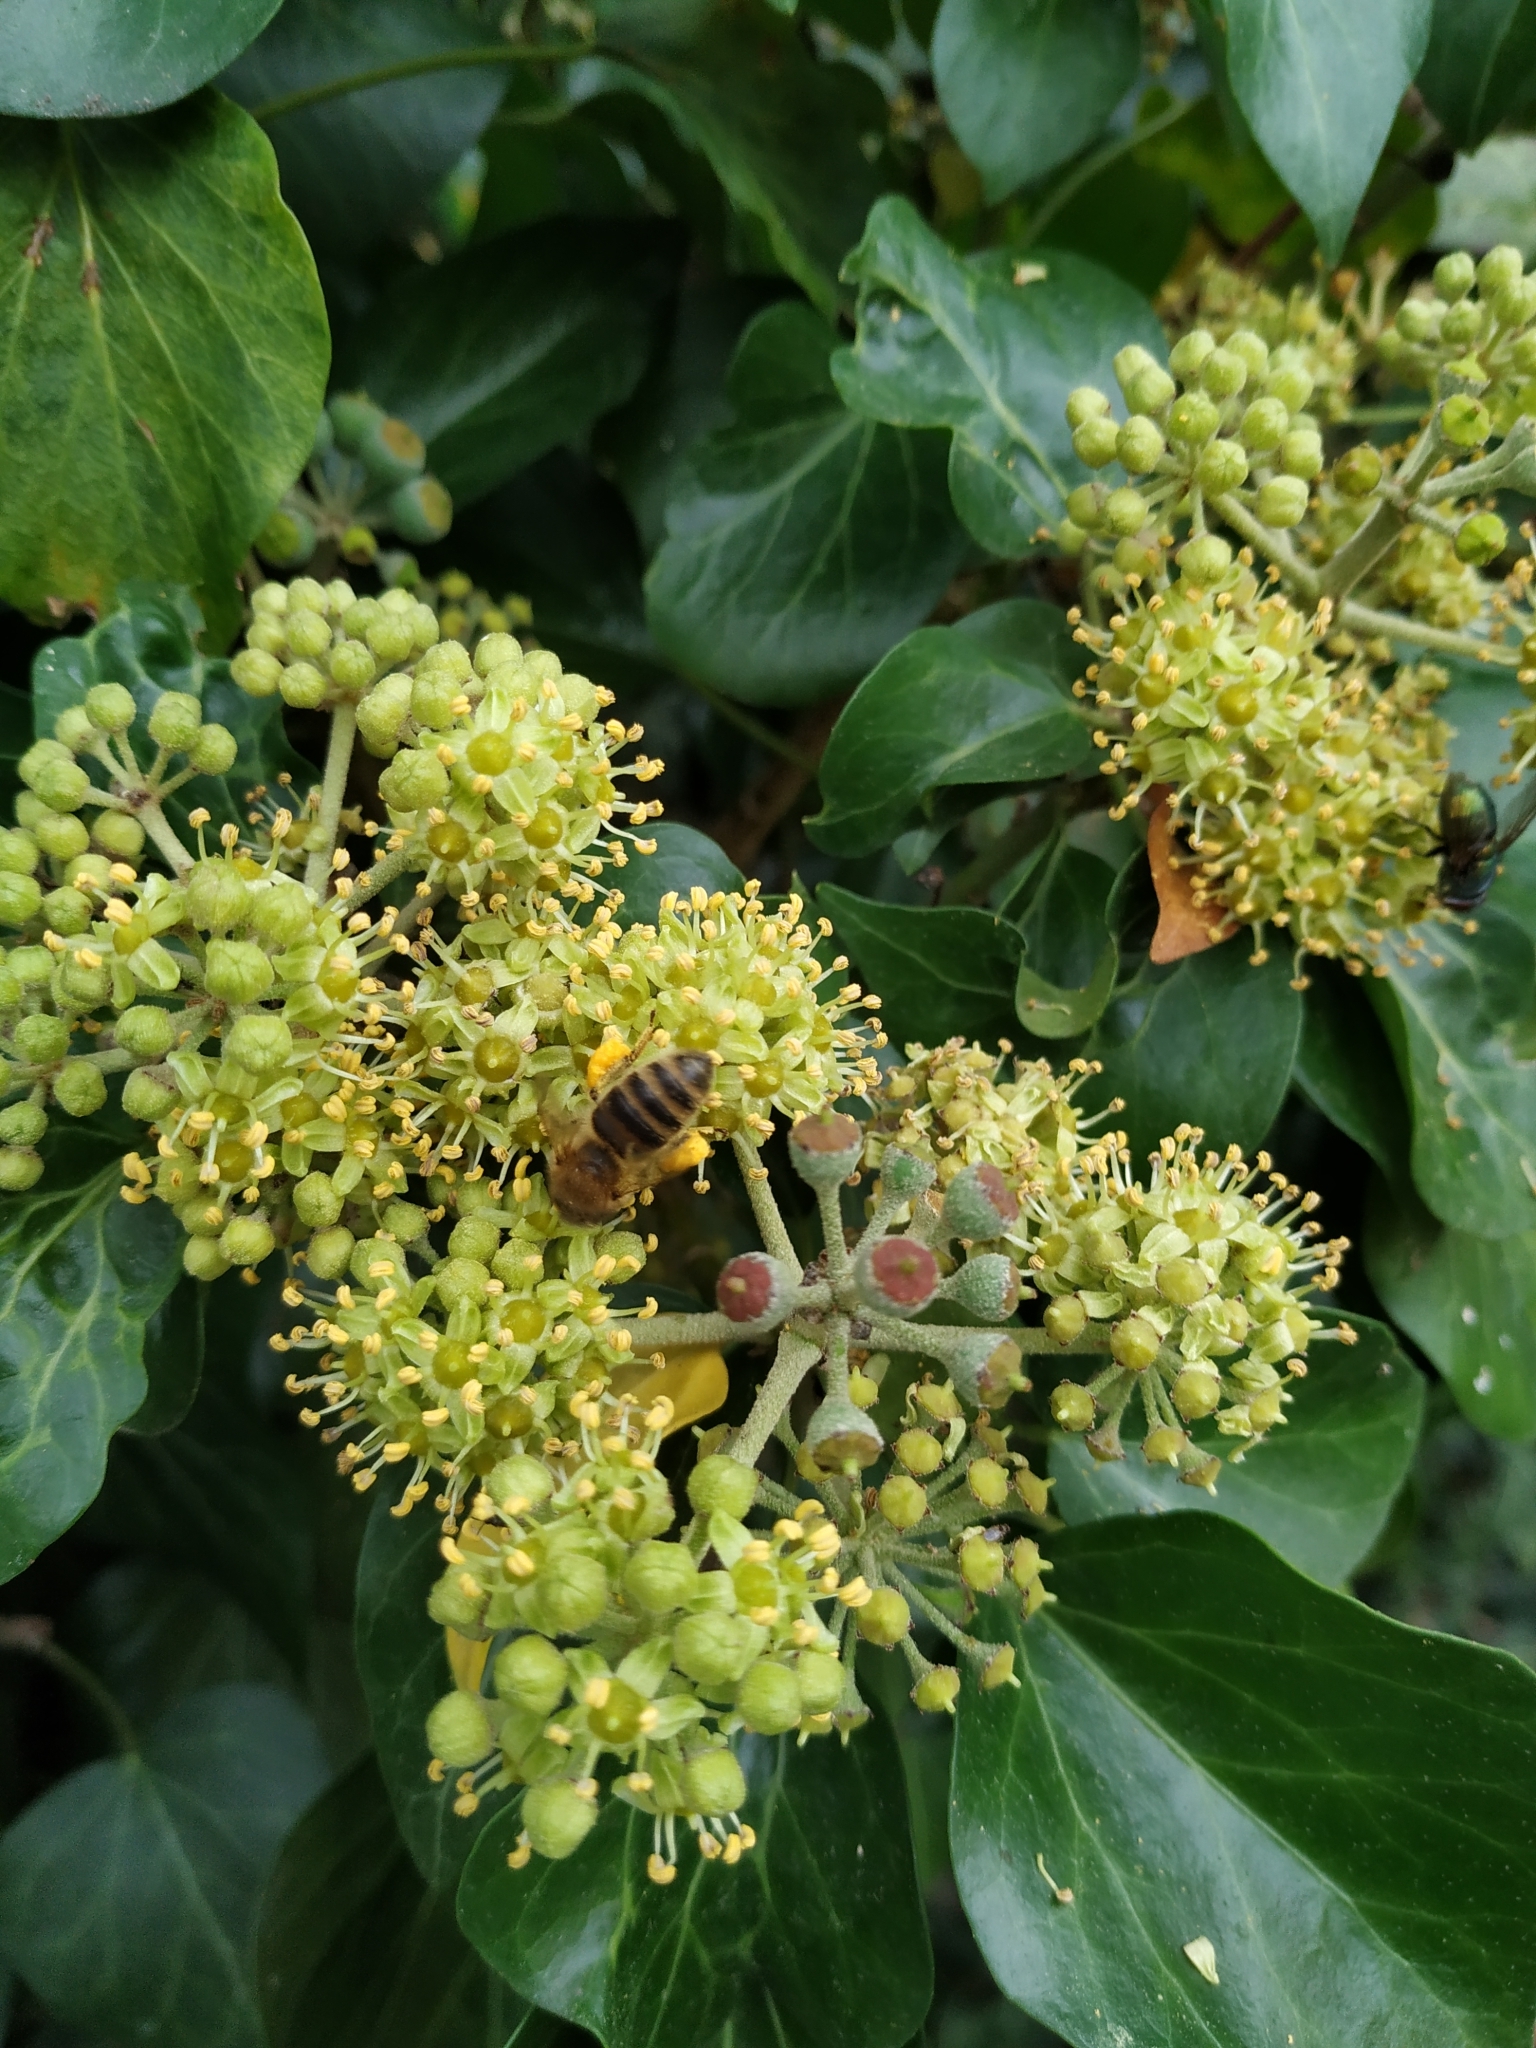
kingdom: Animalia
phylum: Arthropoda
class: Insecta
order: Hymenoptera
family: Apidae
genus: Apis
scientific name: Apis mellifera
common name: Honey bee
